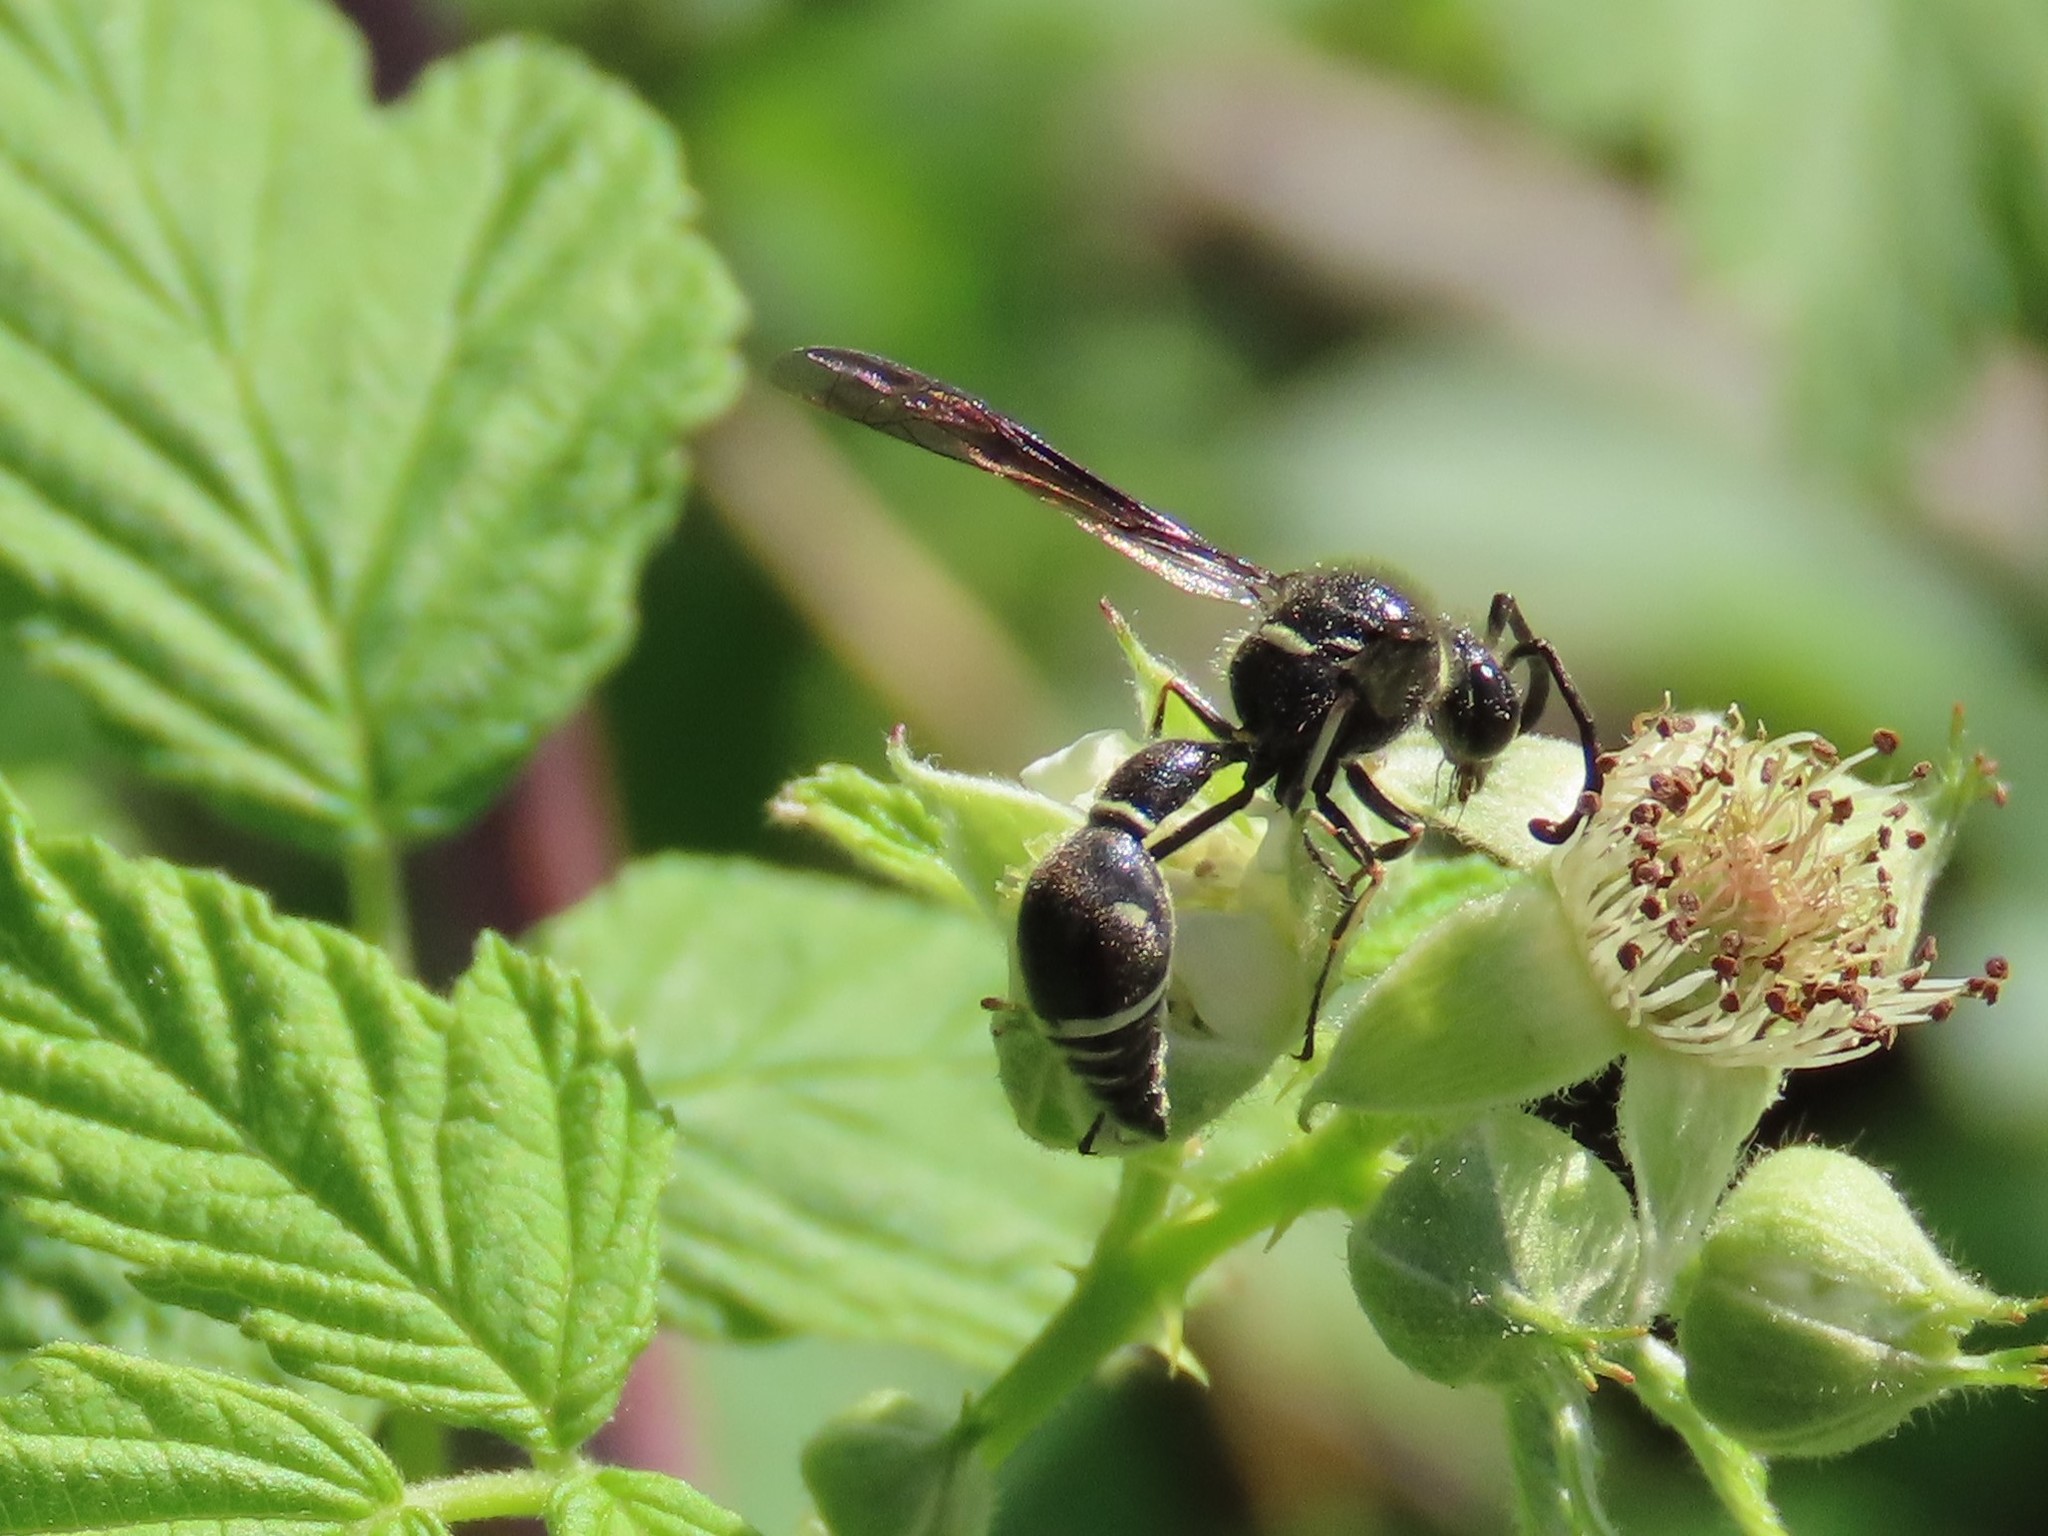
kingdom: Animalia
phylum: Arthropoda
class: Insecta
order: Hymenoptera
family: Vespidae
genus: Eumenes
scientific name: Eumenes fraternus
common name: Fraternal potter wasp
